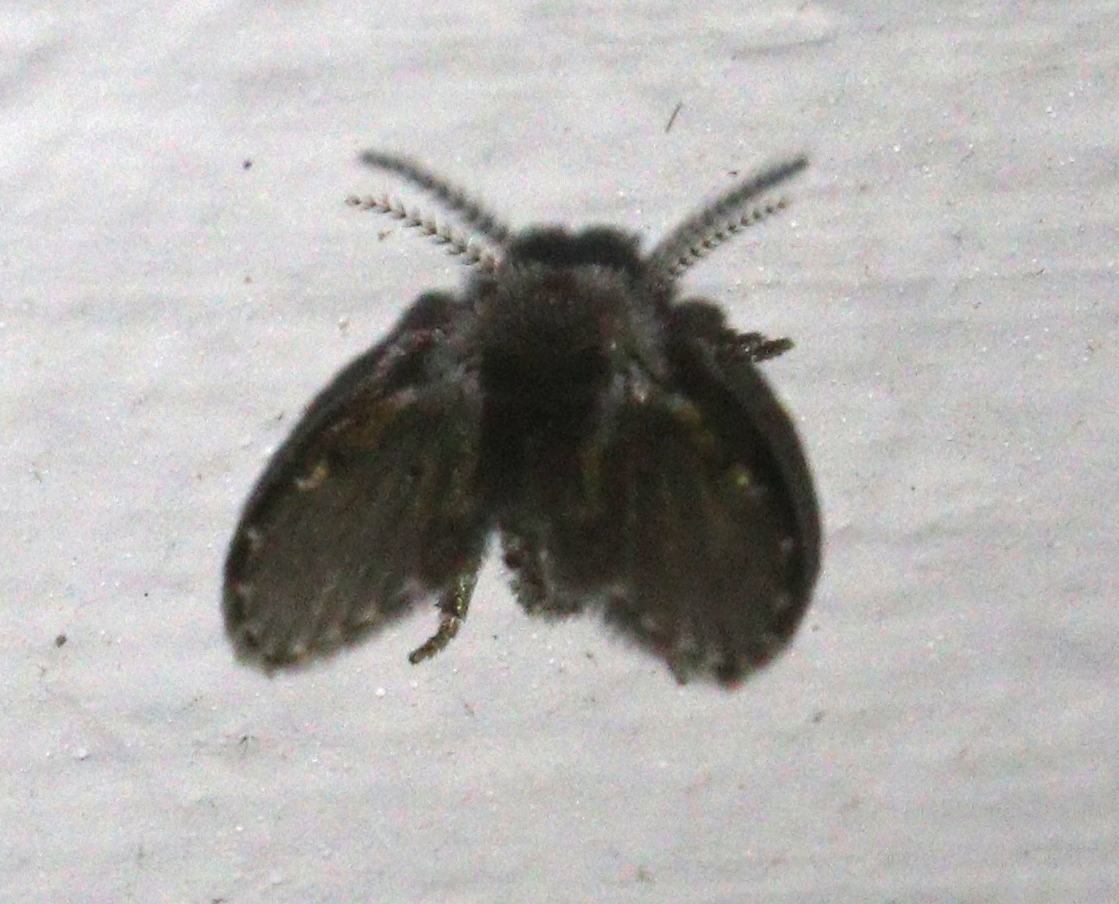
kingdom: Animalia
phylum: Arthropoda
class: Insecta
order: Diptera
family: Psychodidae
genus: Clogmia
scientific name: Clogmia albipunctatus
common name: White-spotted moth fly
